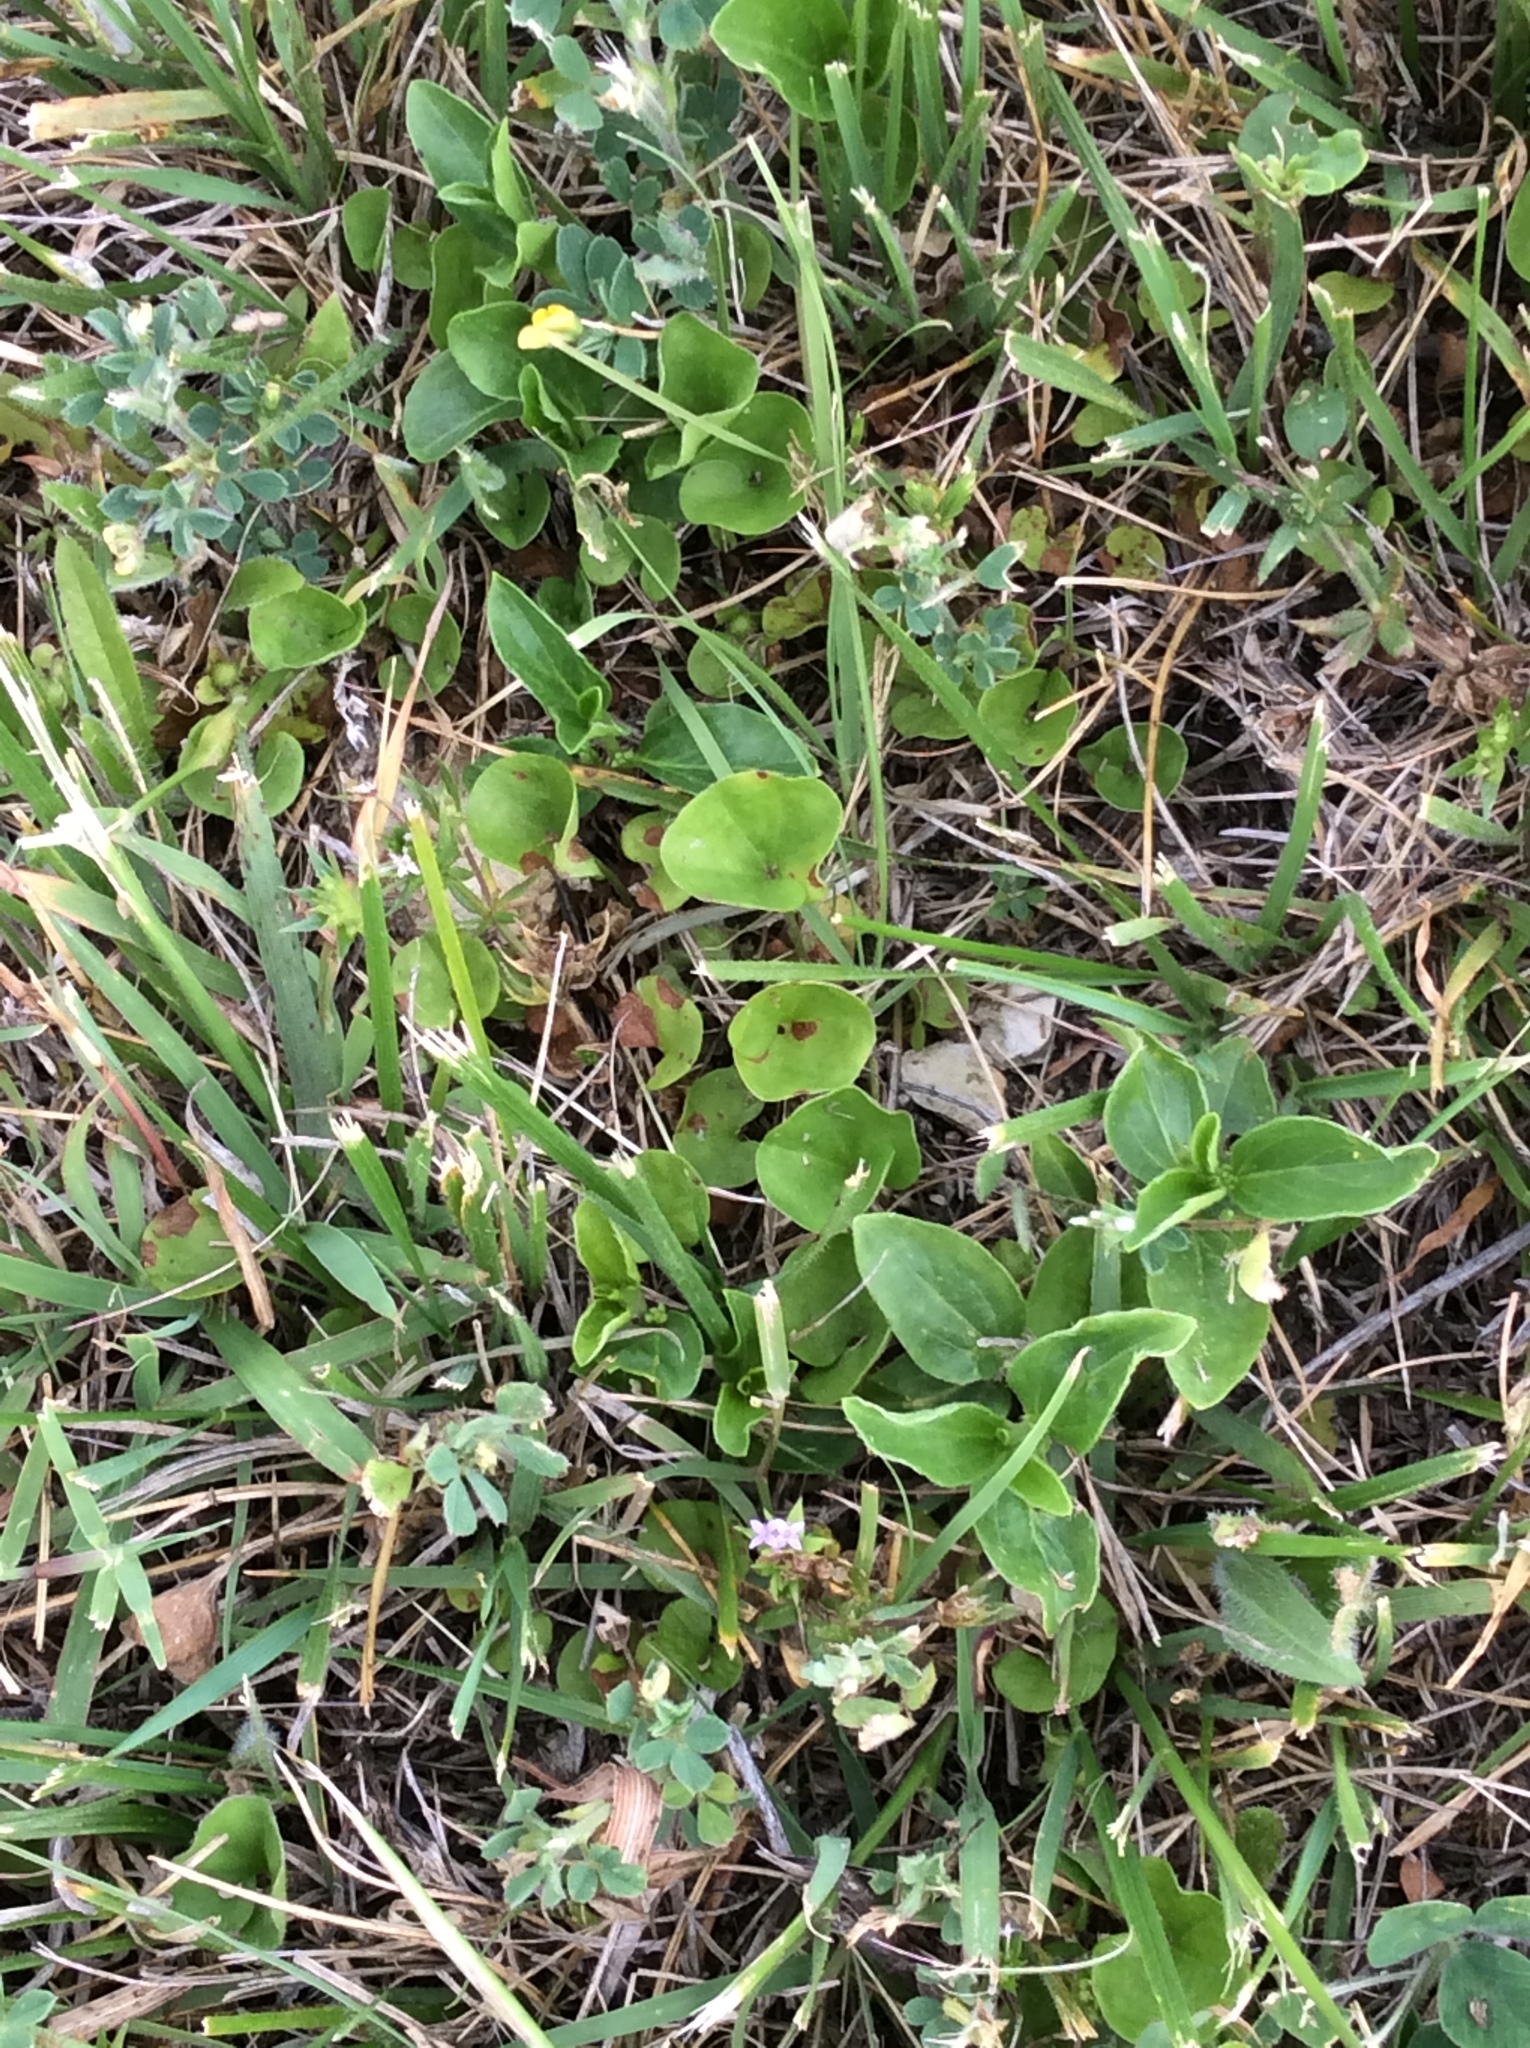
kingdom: Plantae
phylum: Tracheophyta
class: Magnoliopsida
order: Solanales
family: Convolvulaceae
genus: Dichondra
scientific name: Dichondra carolinensis
